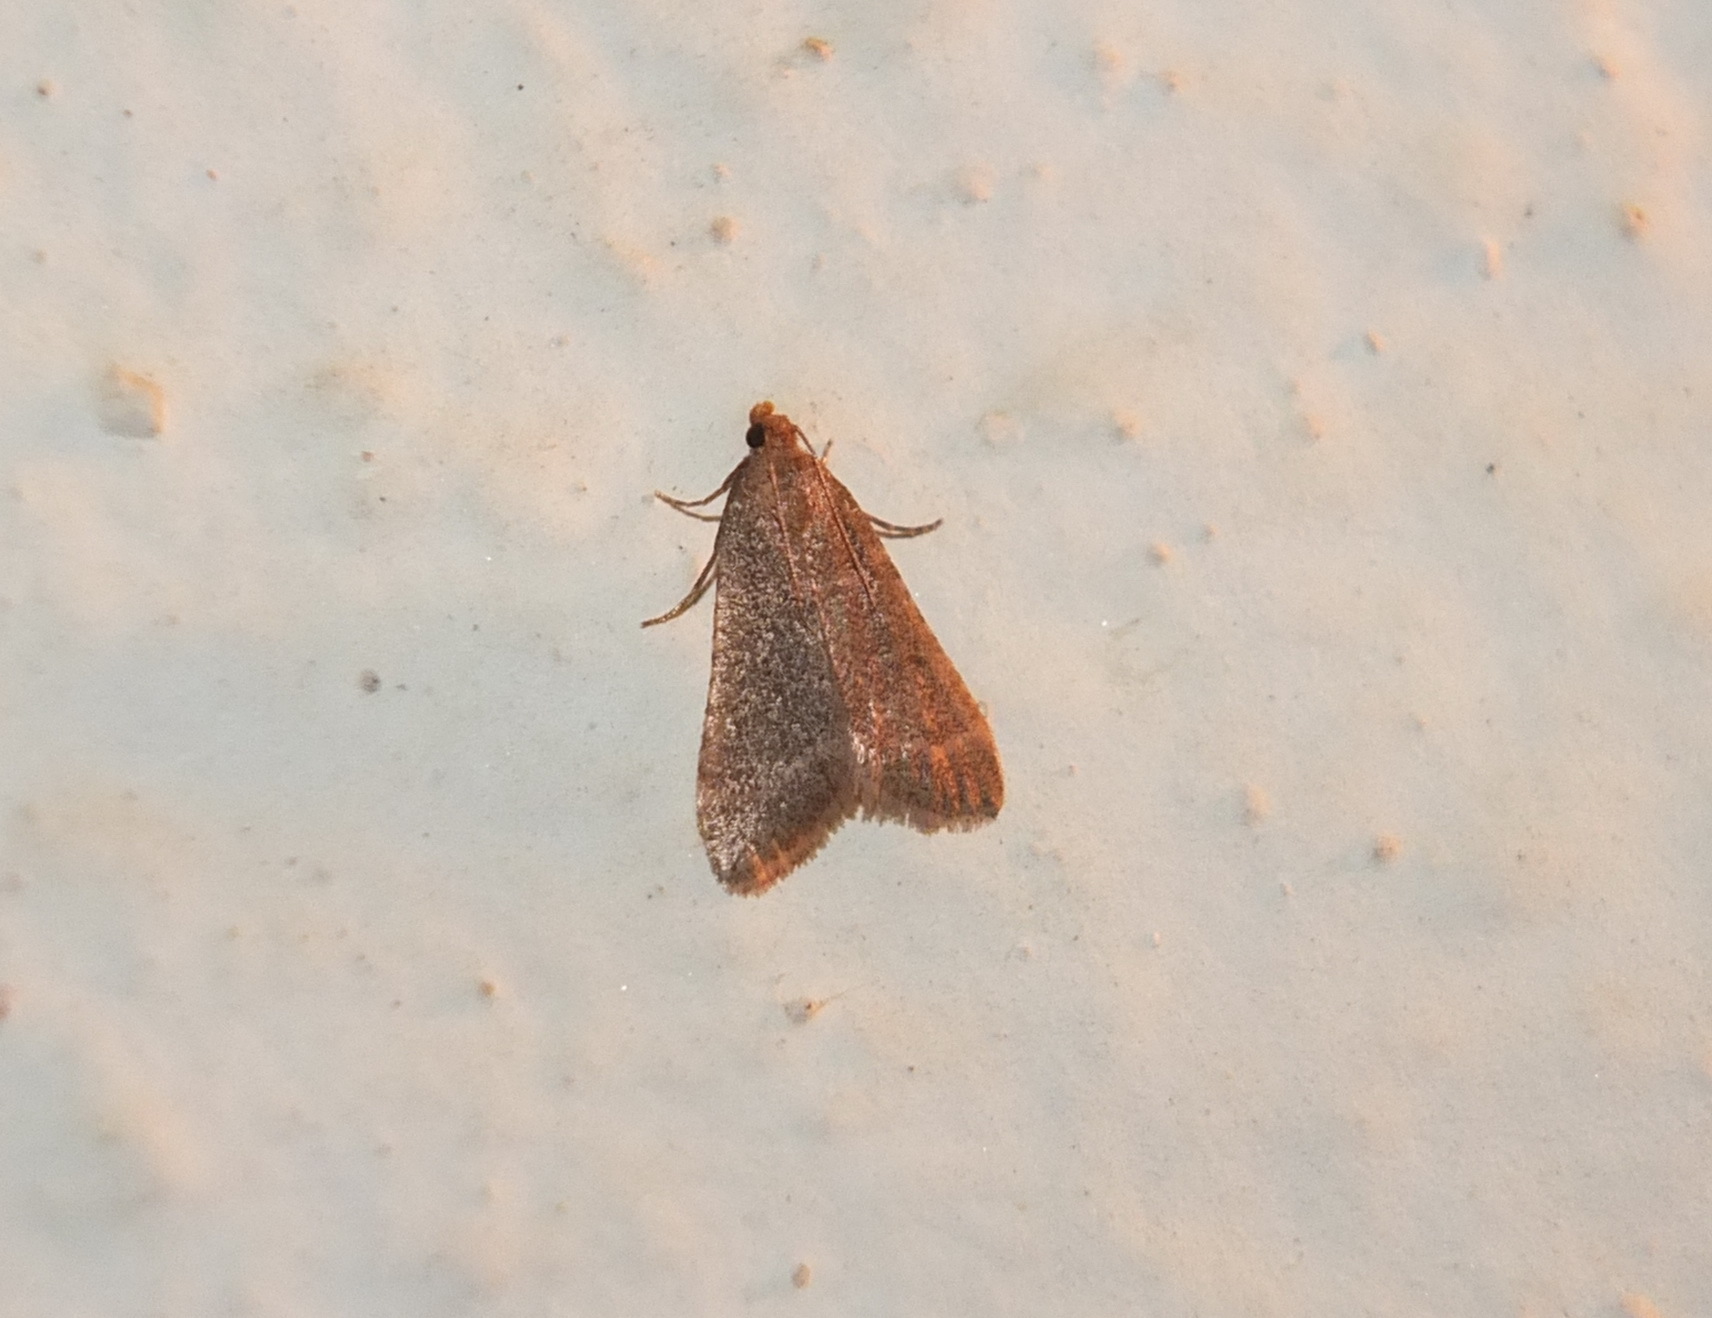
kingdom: Animalia
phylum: Arthropoda
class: Insecta
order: Lepidoptera
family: Pyralidae
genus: Bostra
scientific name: Bostra obsoletalis
